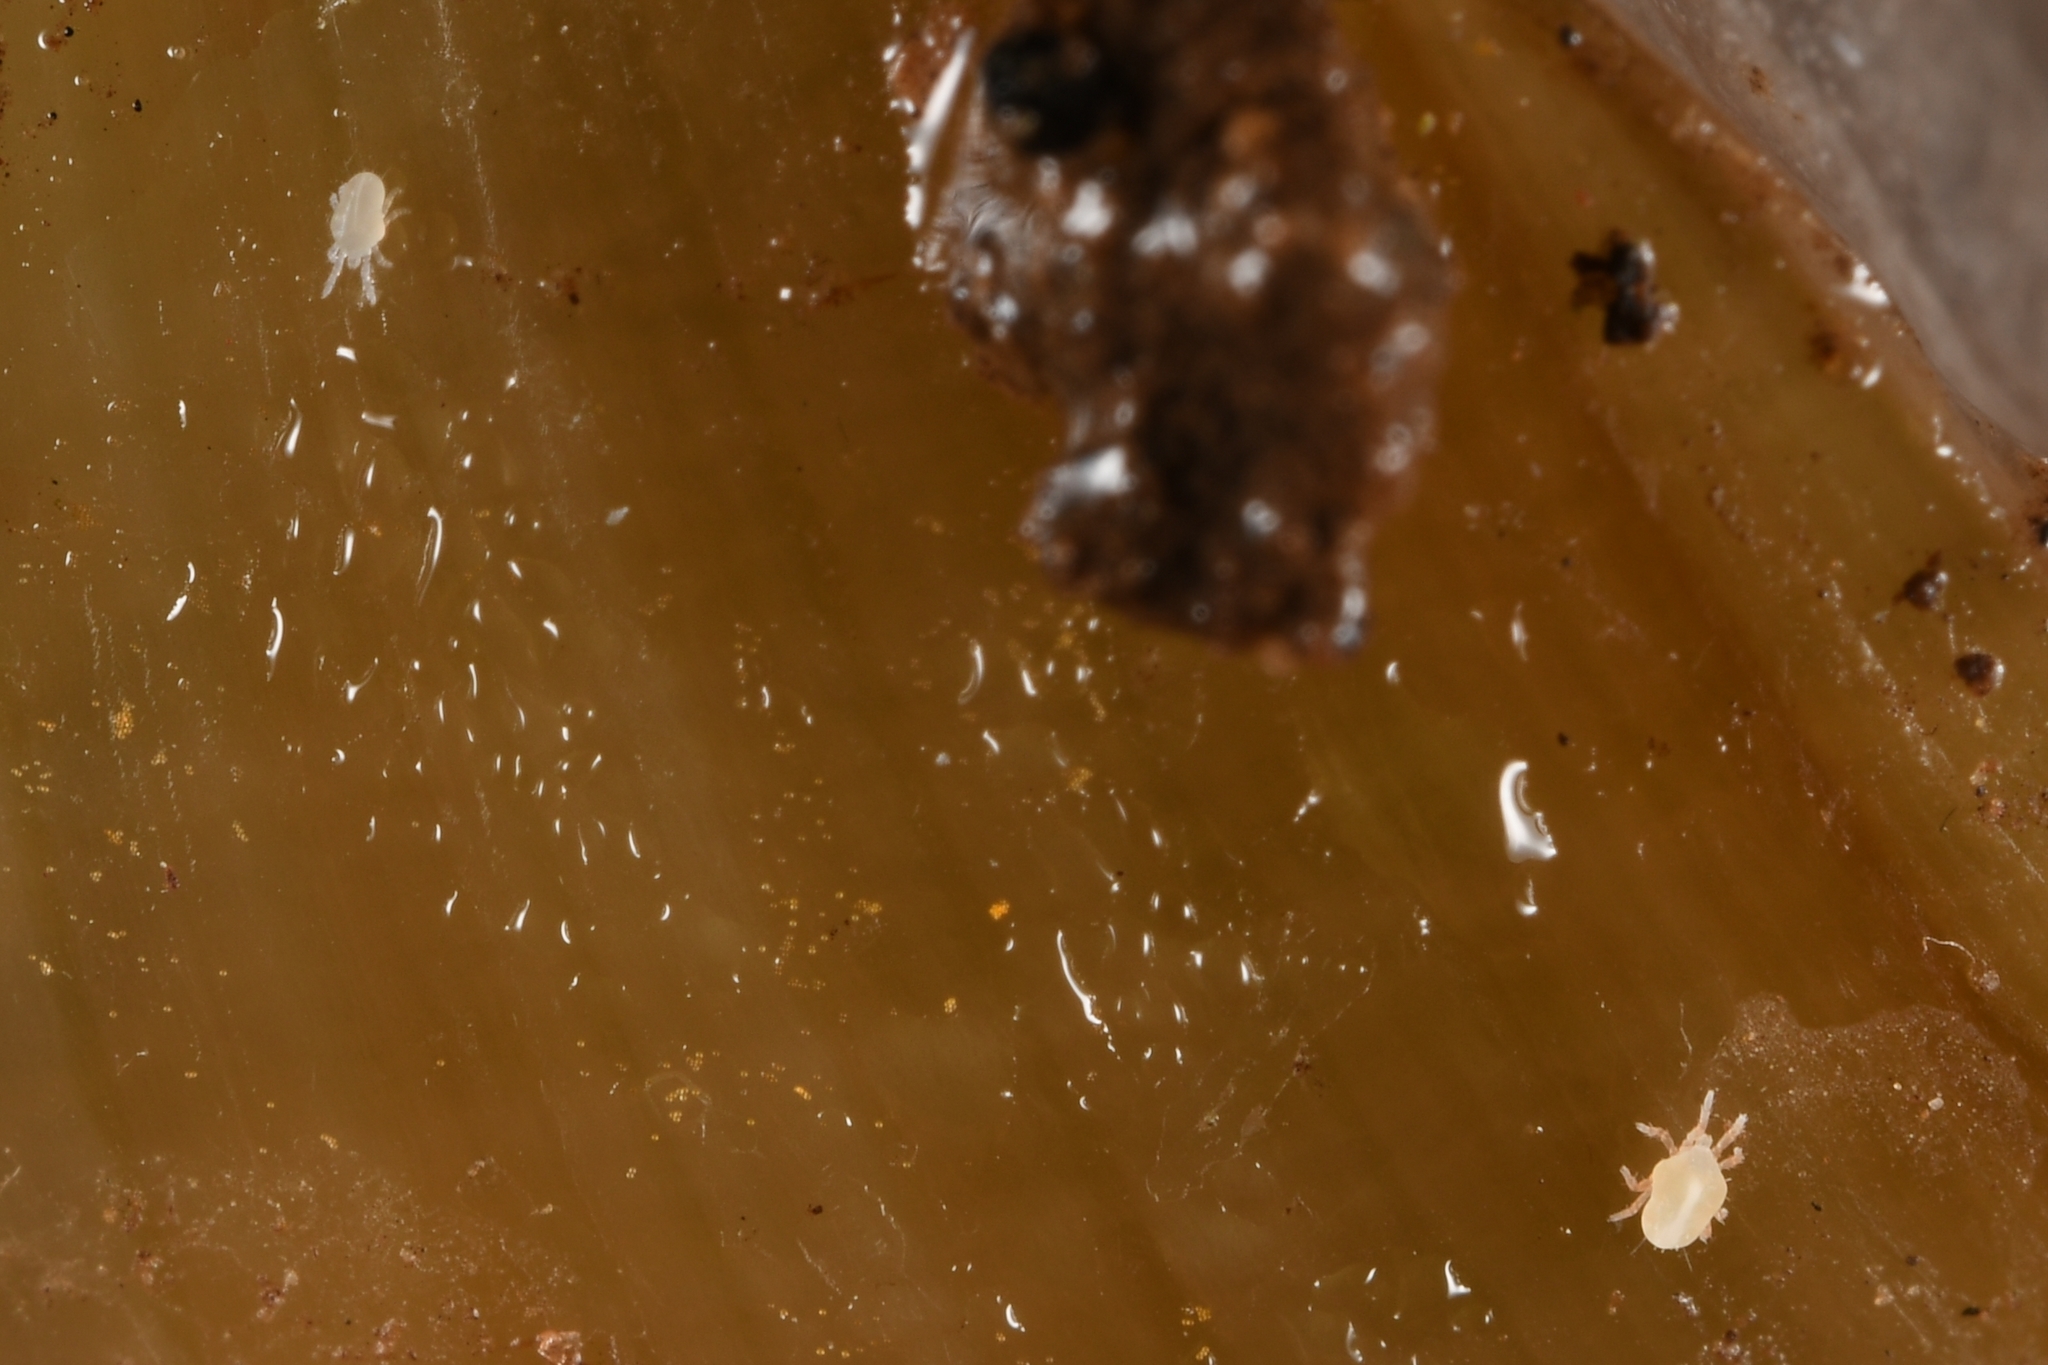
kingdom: Animalia
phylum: Arthropoda
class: Arachnida
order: Trombidiformes
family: Ereynetidae
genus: Riccardoella
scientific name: Riccardoella limacum
